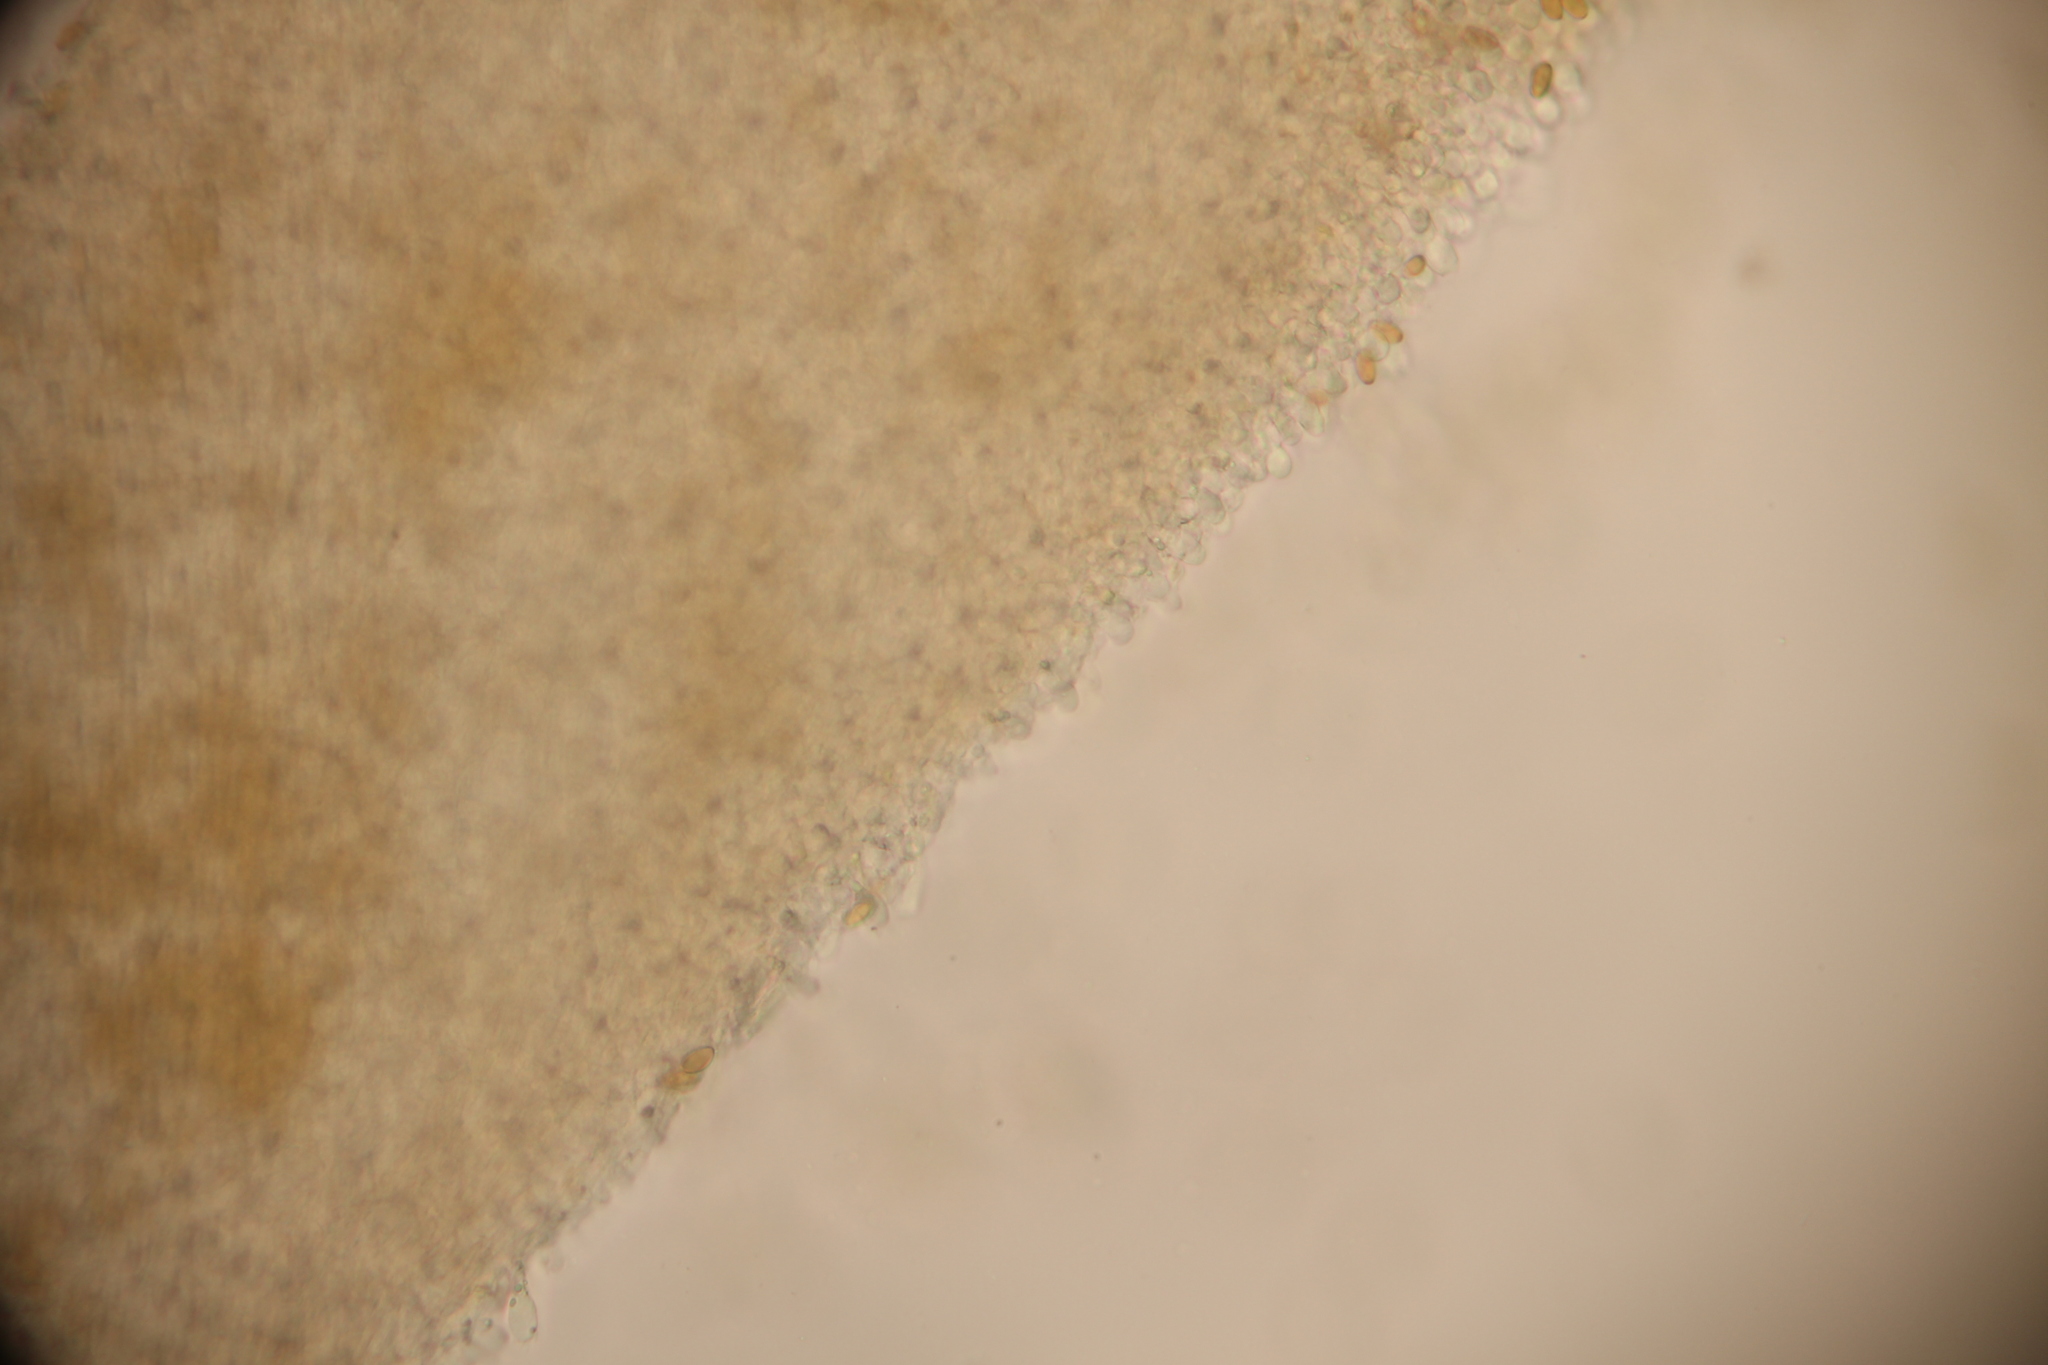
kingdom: Fungi
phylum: Basidiomycota
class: Agaricomycetes
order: Agaricales
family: Bolbitiaceae
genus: Conocybe
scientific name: Conocybe rugosa
